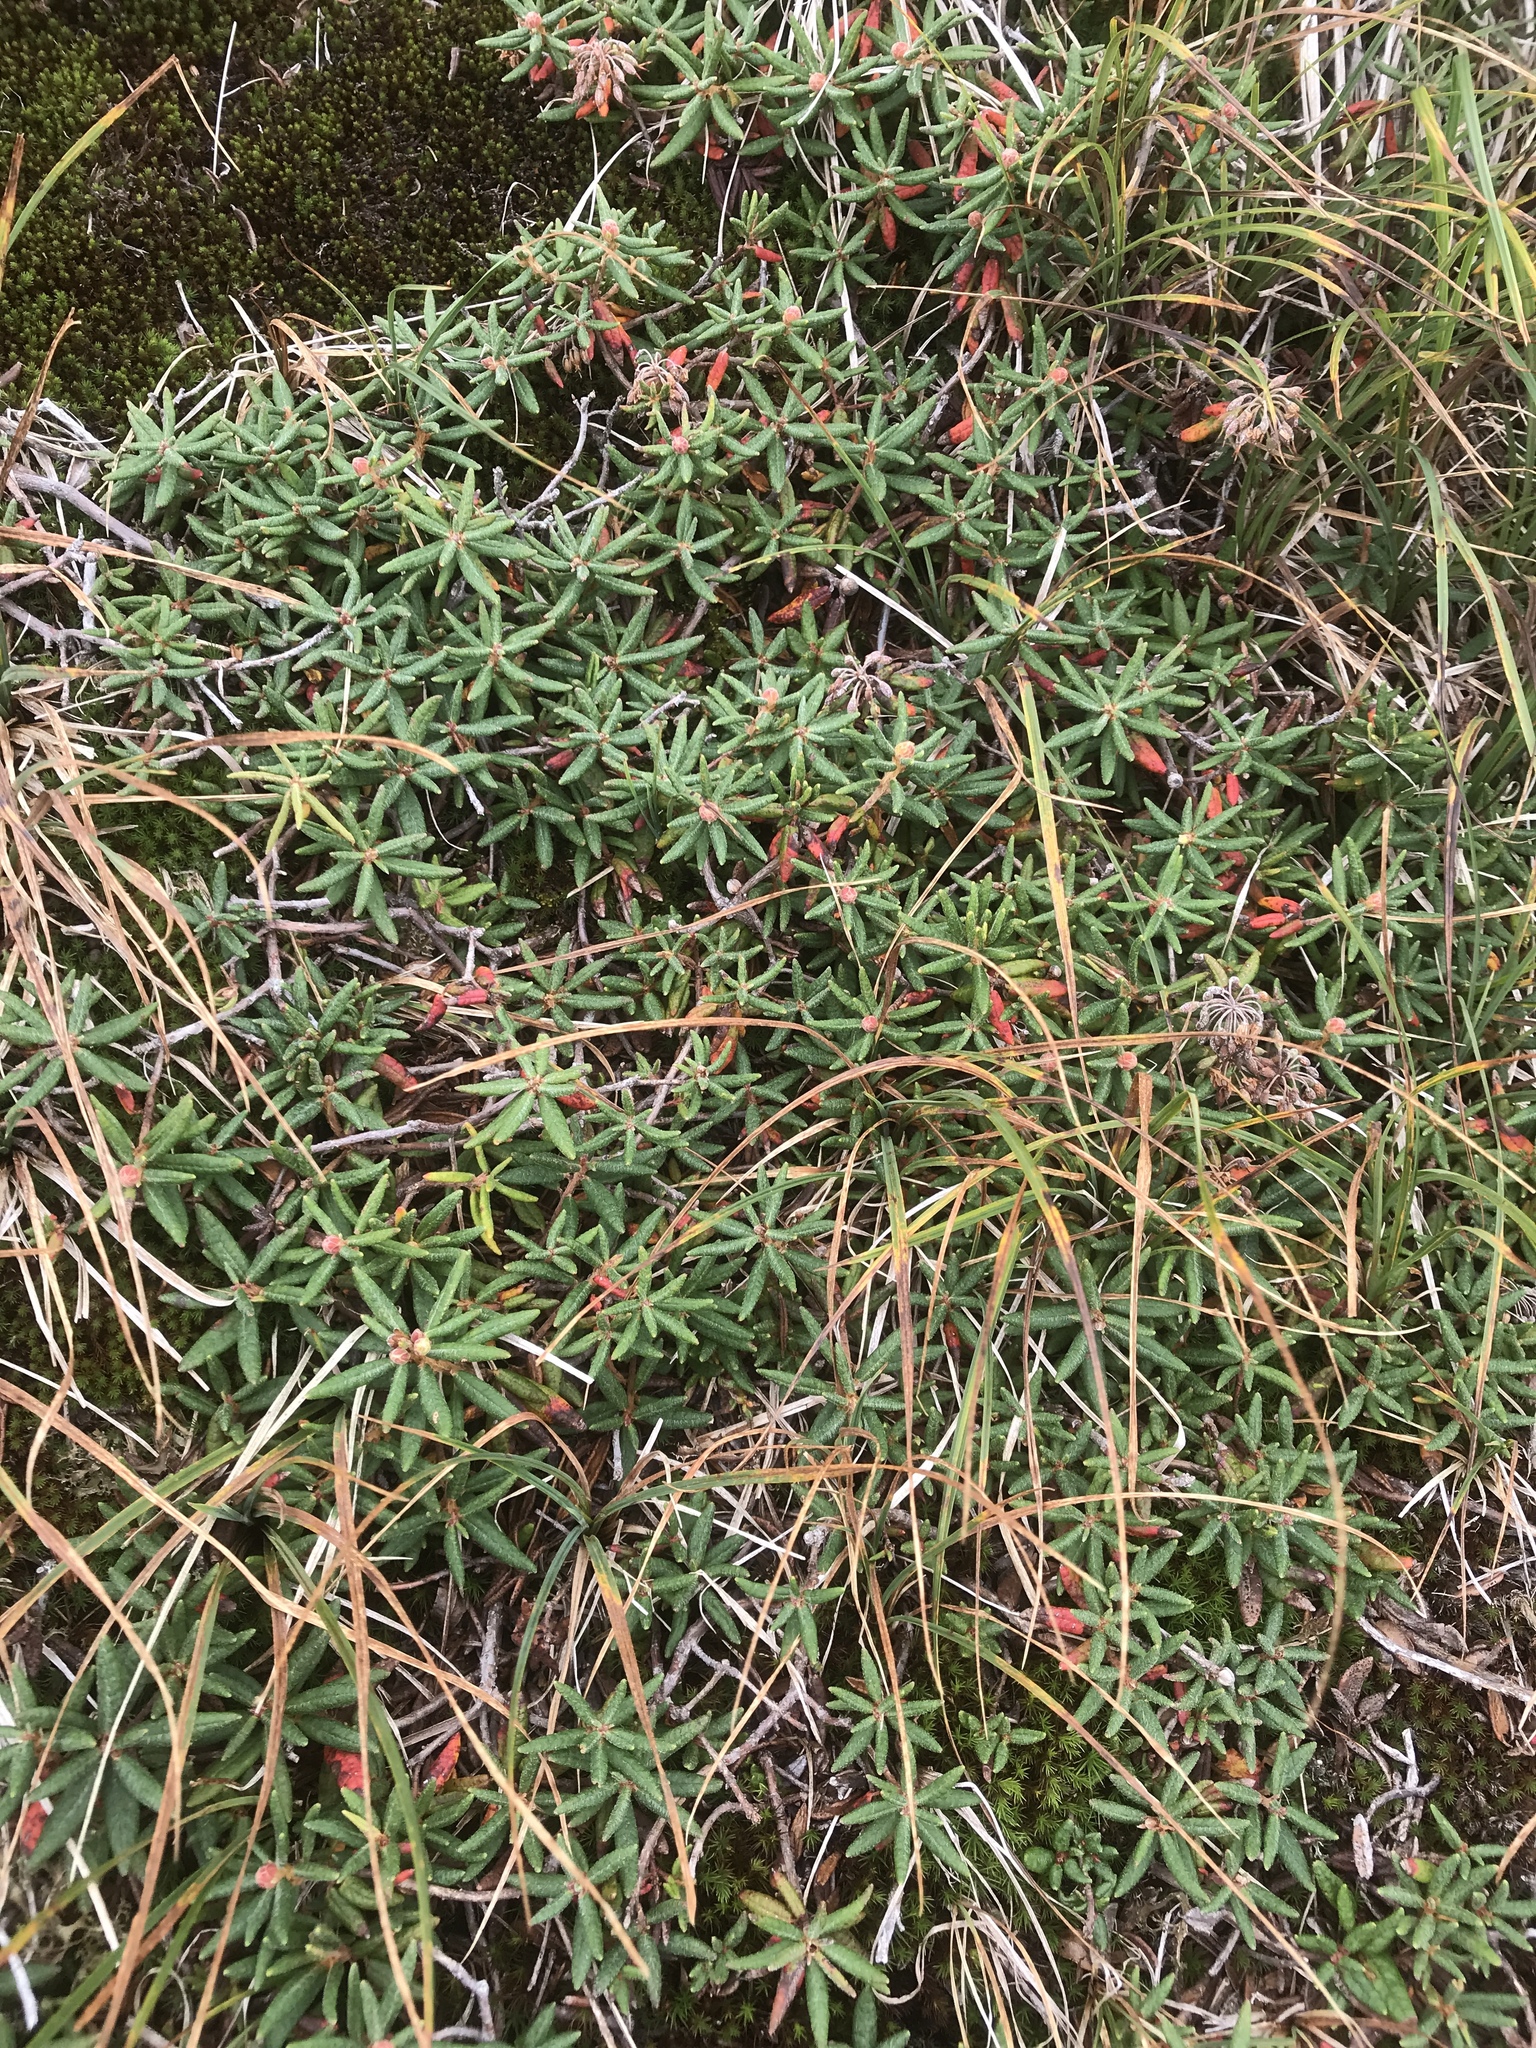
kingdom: Plantae
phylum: Tracheophyta
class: Magnoliopsida
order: Ericales
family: Ericaceae
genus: Rhododendron
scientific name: Rhododendron groenlandicum
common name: Bog labrador tea
